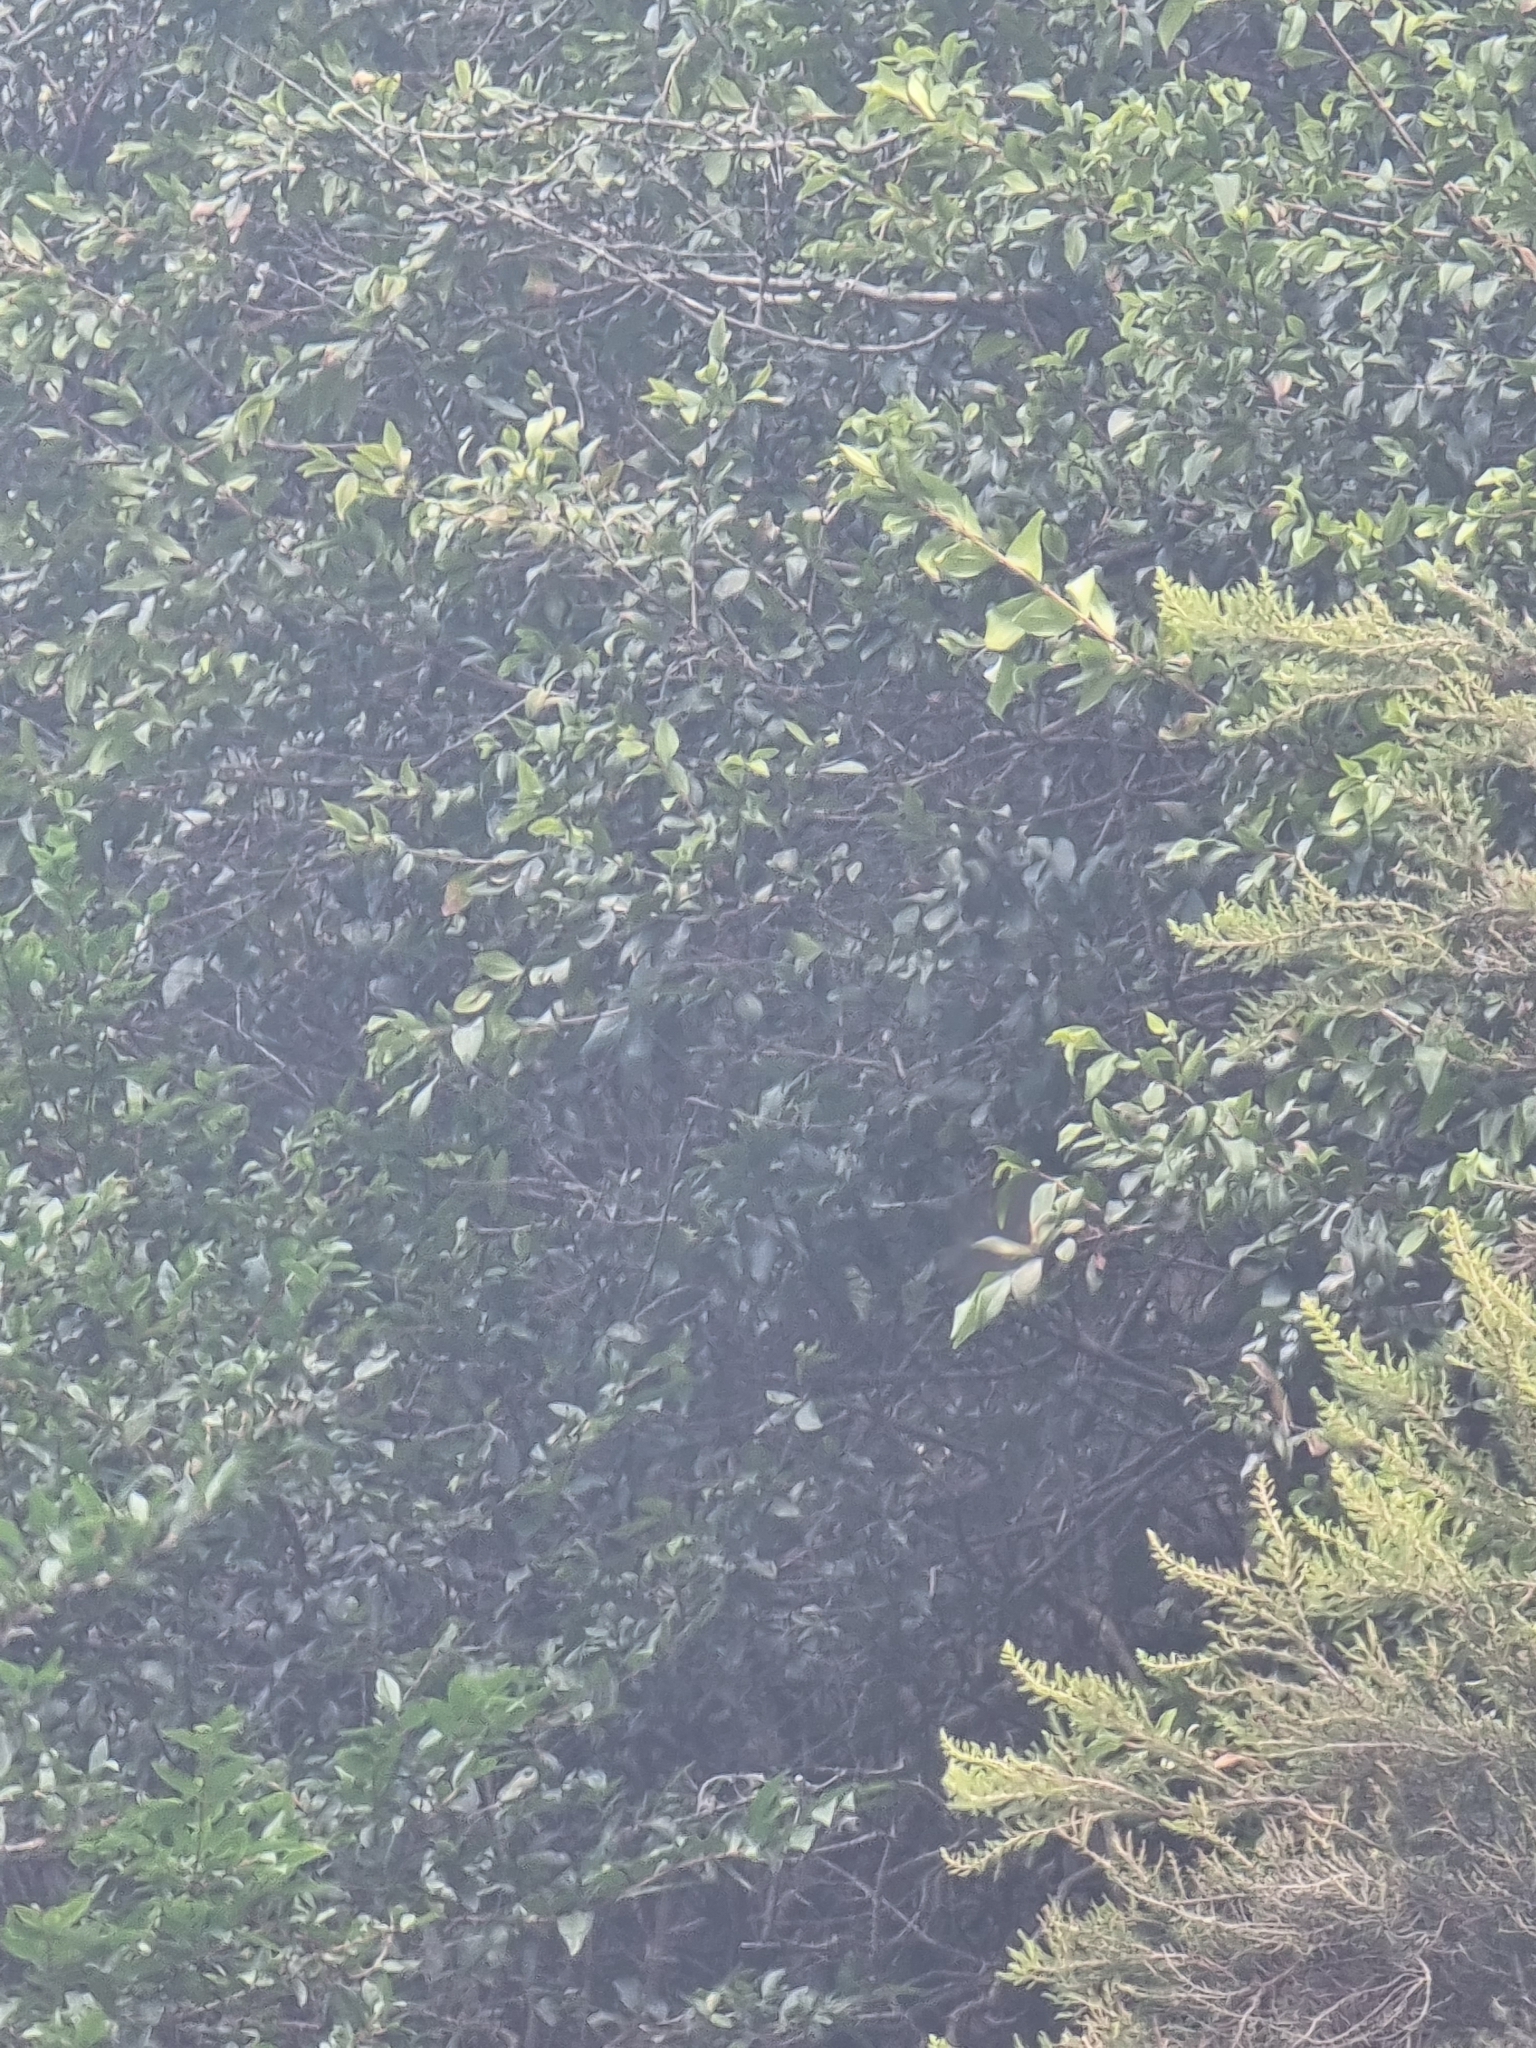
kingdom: Plantae
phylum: Tracheophyta
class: Magnoliopsida
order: Myrtales
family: Myrtaceae
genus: Myrtus
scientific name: Myrtus communis
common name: Myrtle
